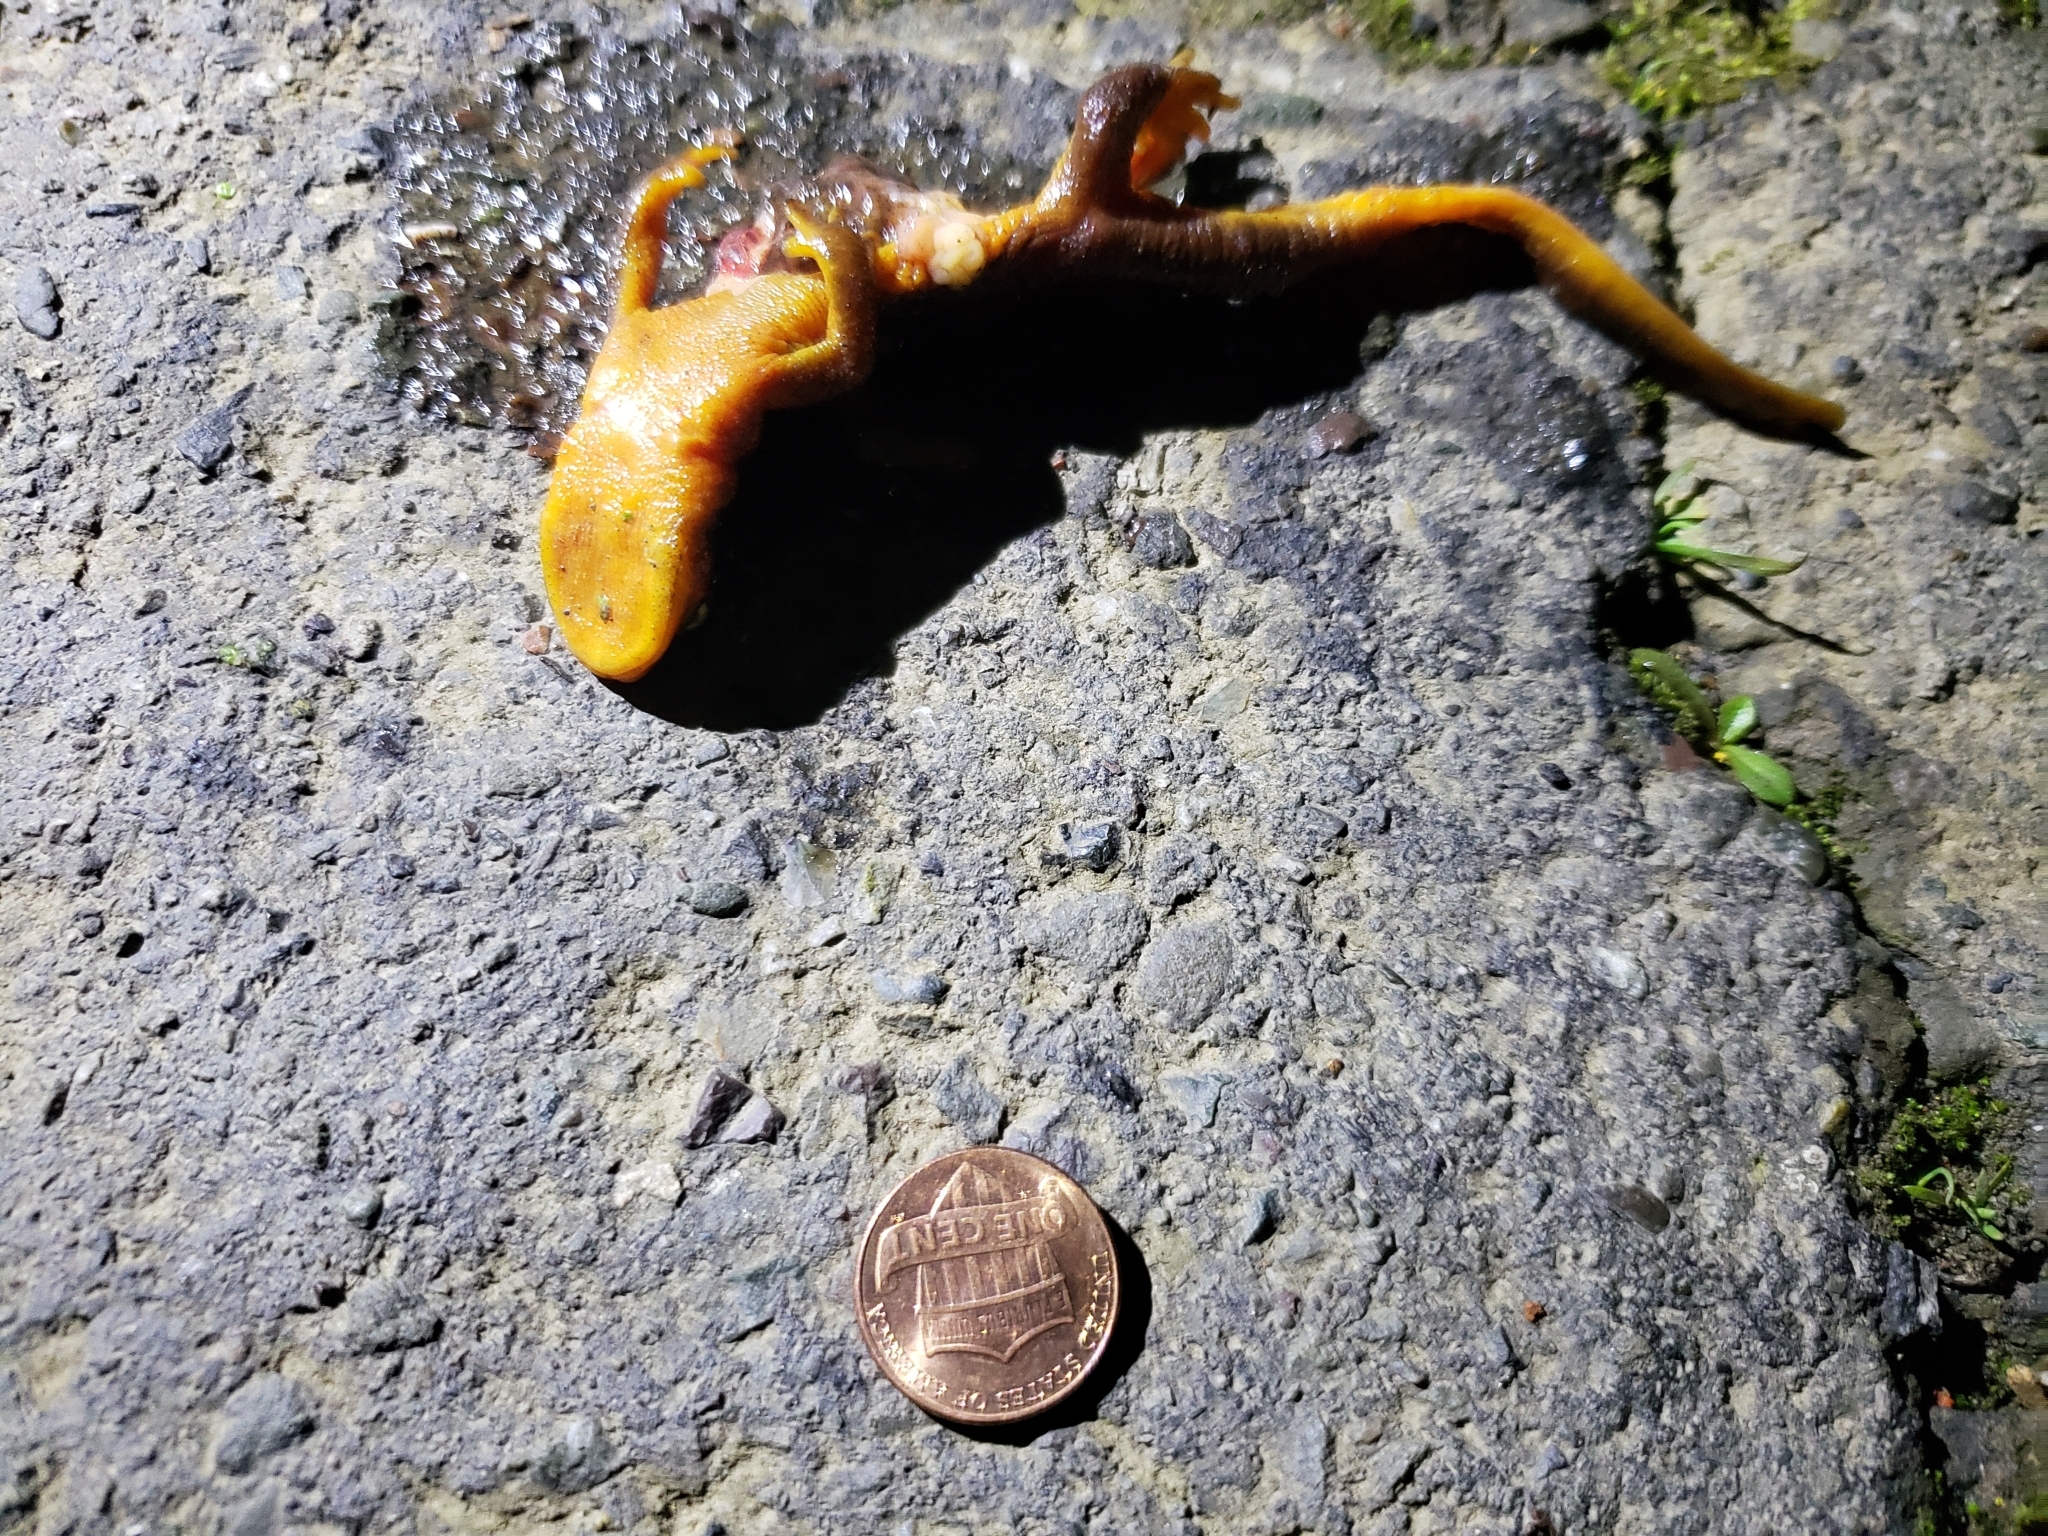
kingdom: Animalia
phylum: Chordata
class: Amphibia
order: Caudata
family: Salamandridae
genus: Taricha
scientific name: Taricha
